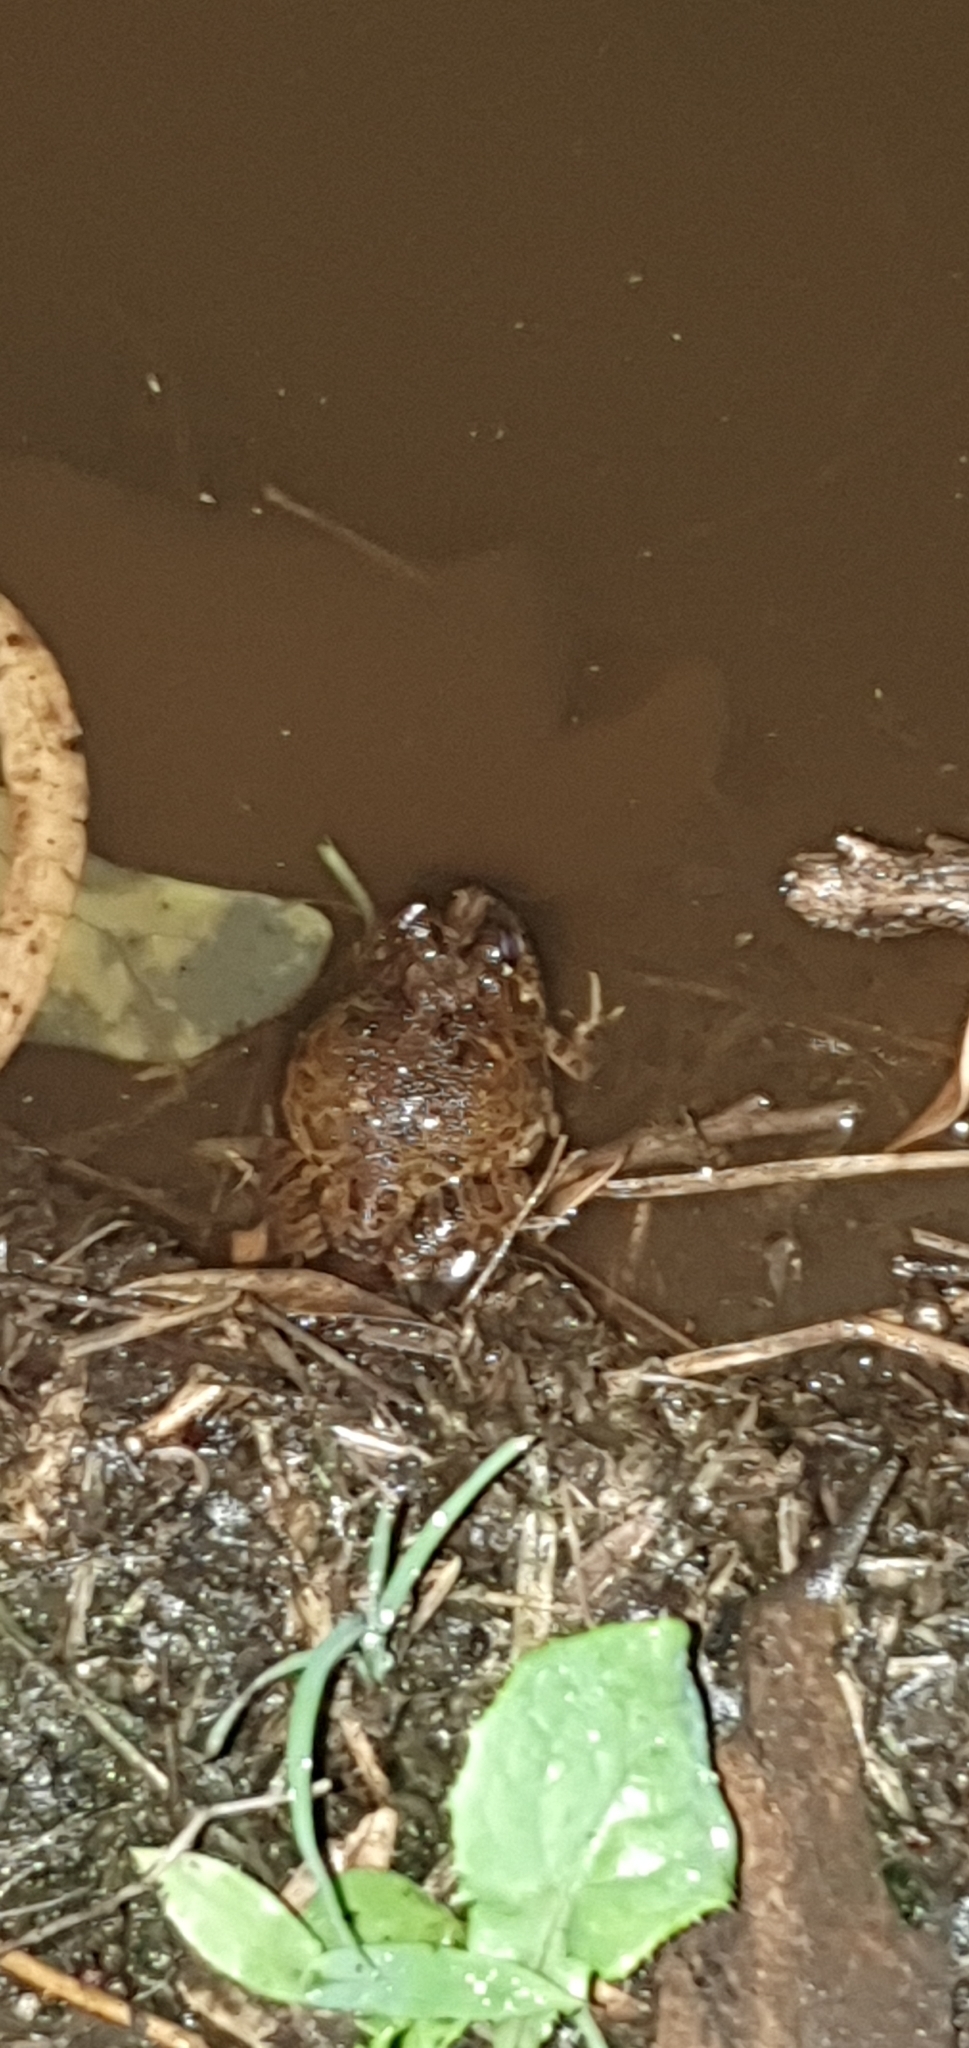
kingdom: Animalia
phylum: Chordata
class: Amphibia
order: Anura
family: Limnodynastidae
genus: Platyplectrum
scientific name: Platyplectrum ornatum
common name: Ornate burrowing frog
